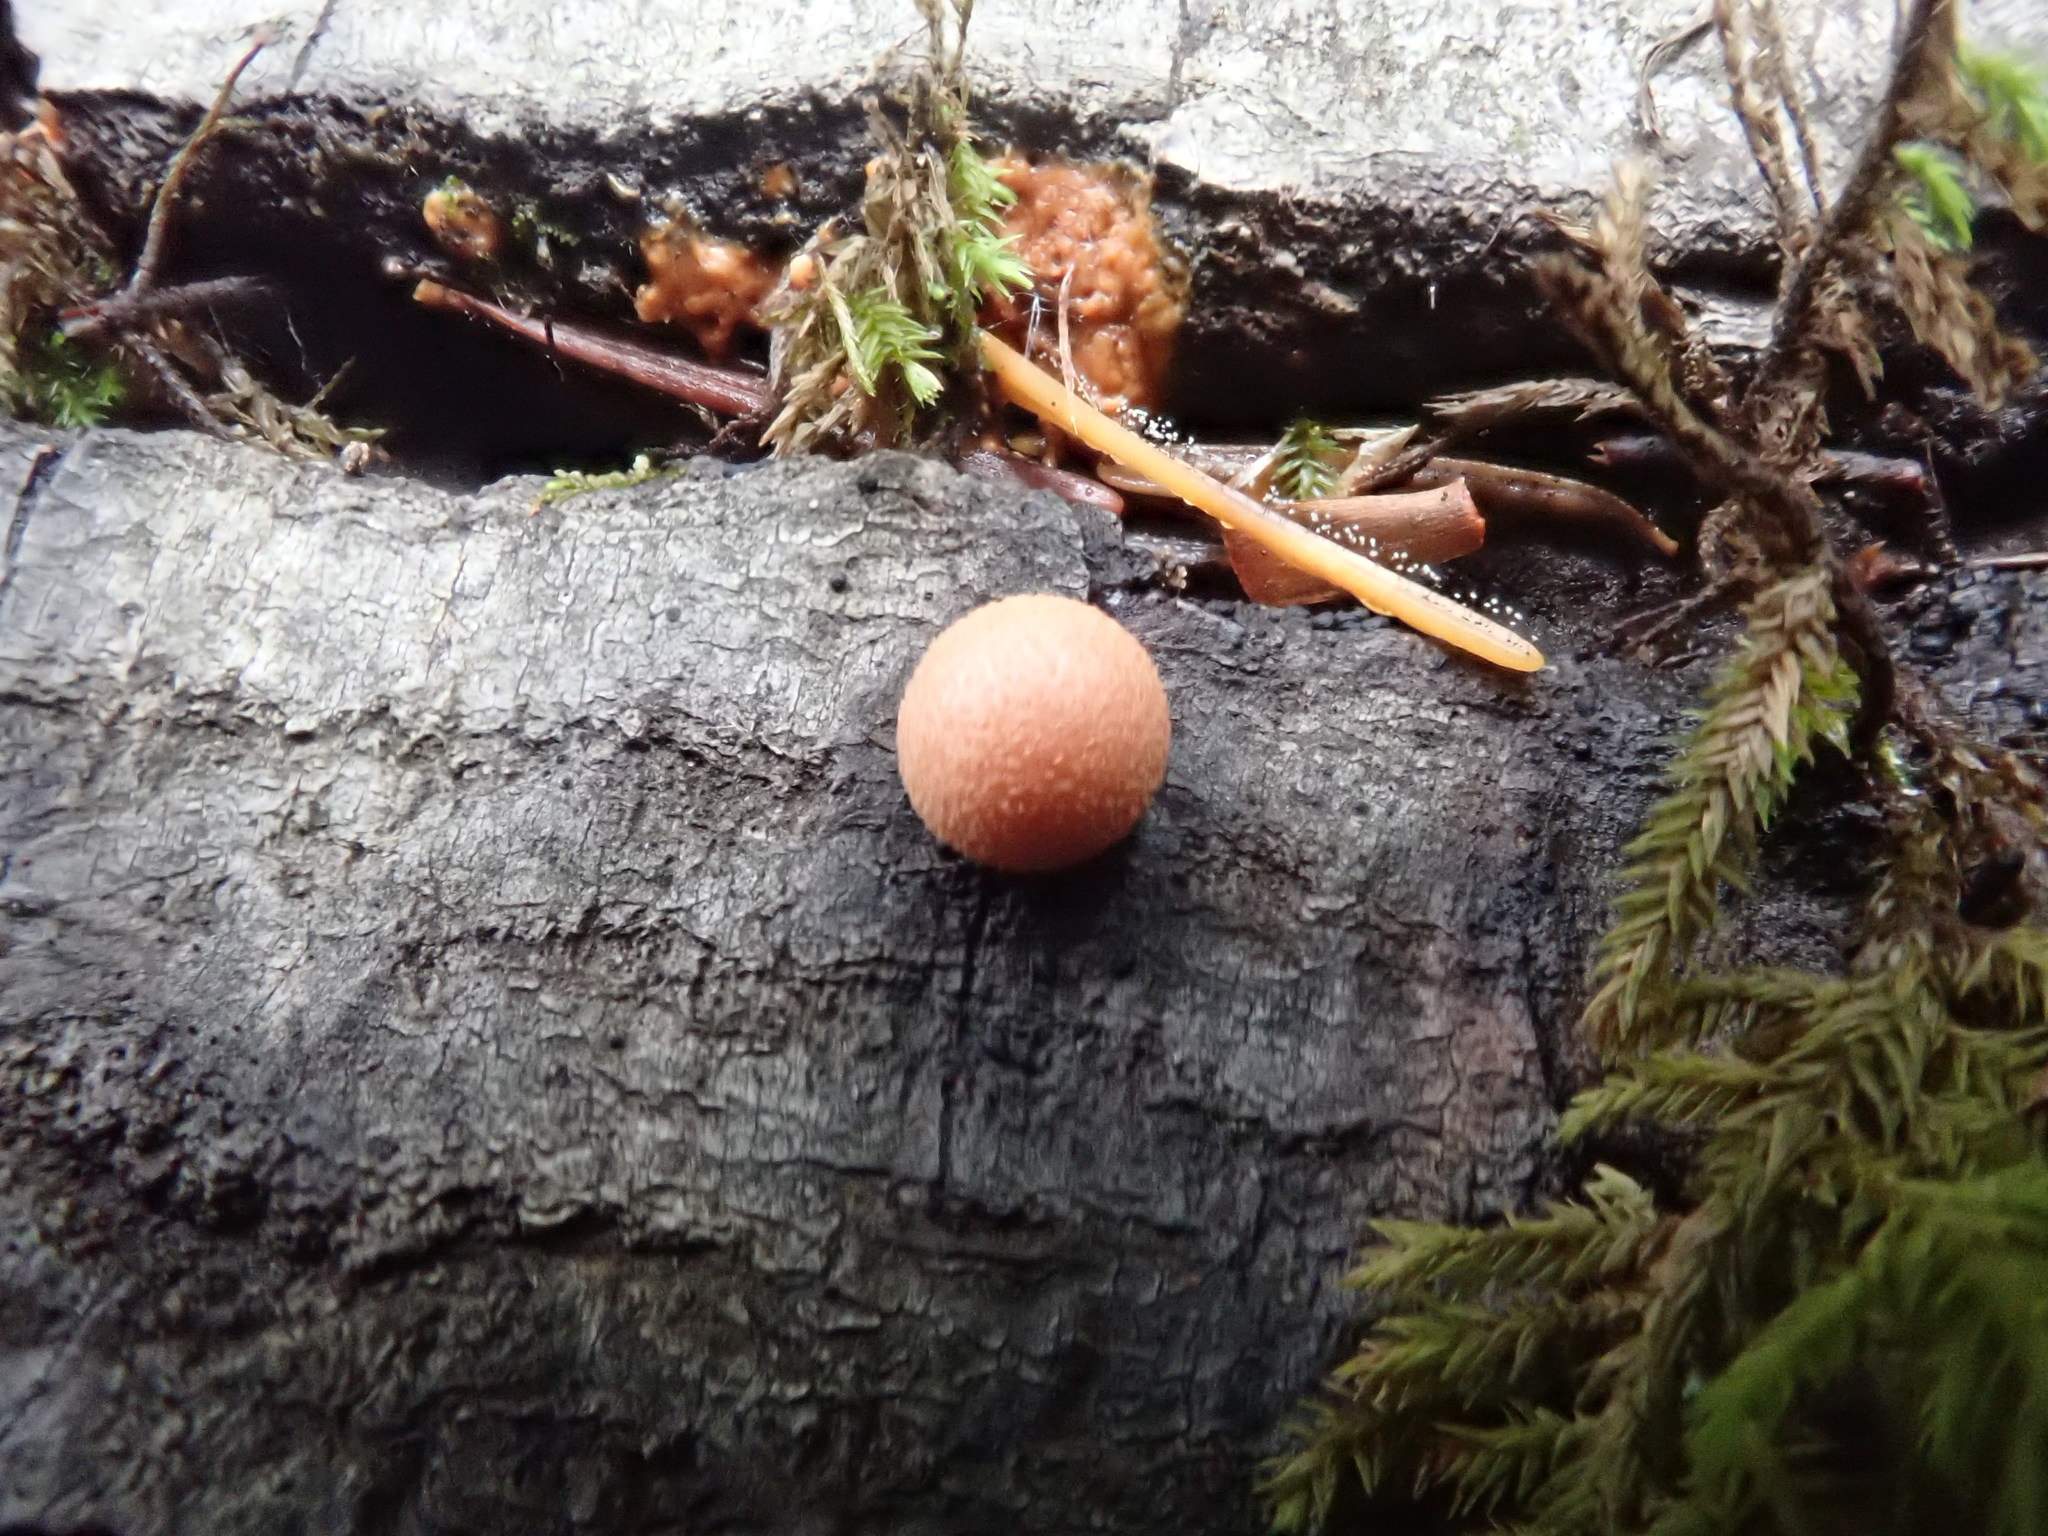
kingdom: Protozoa
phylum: Mycetozoa
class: Myxomycetes
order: Cribrariales
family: Tubiferaceae
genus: Lycogala
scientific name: Lycogala epidendrum
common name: Wolf's milk
